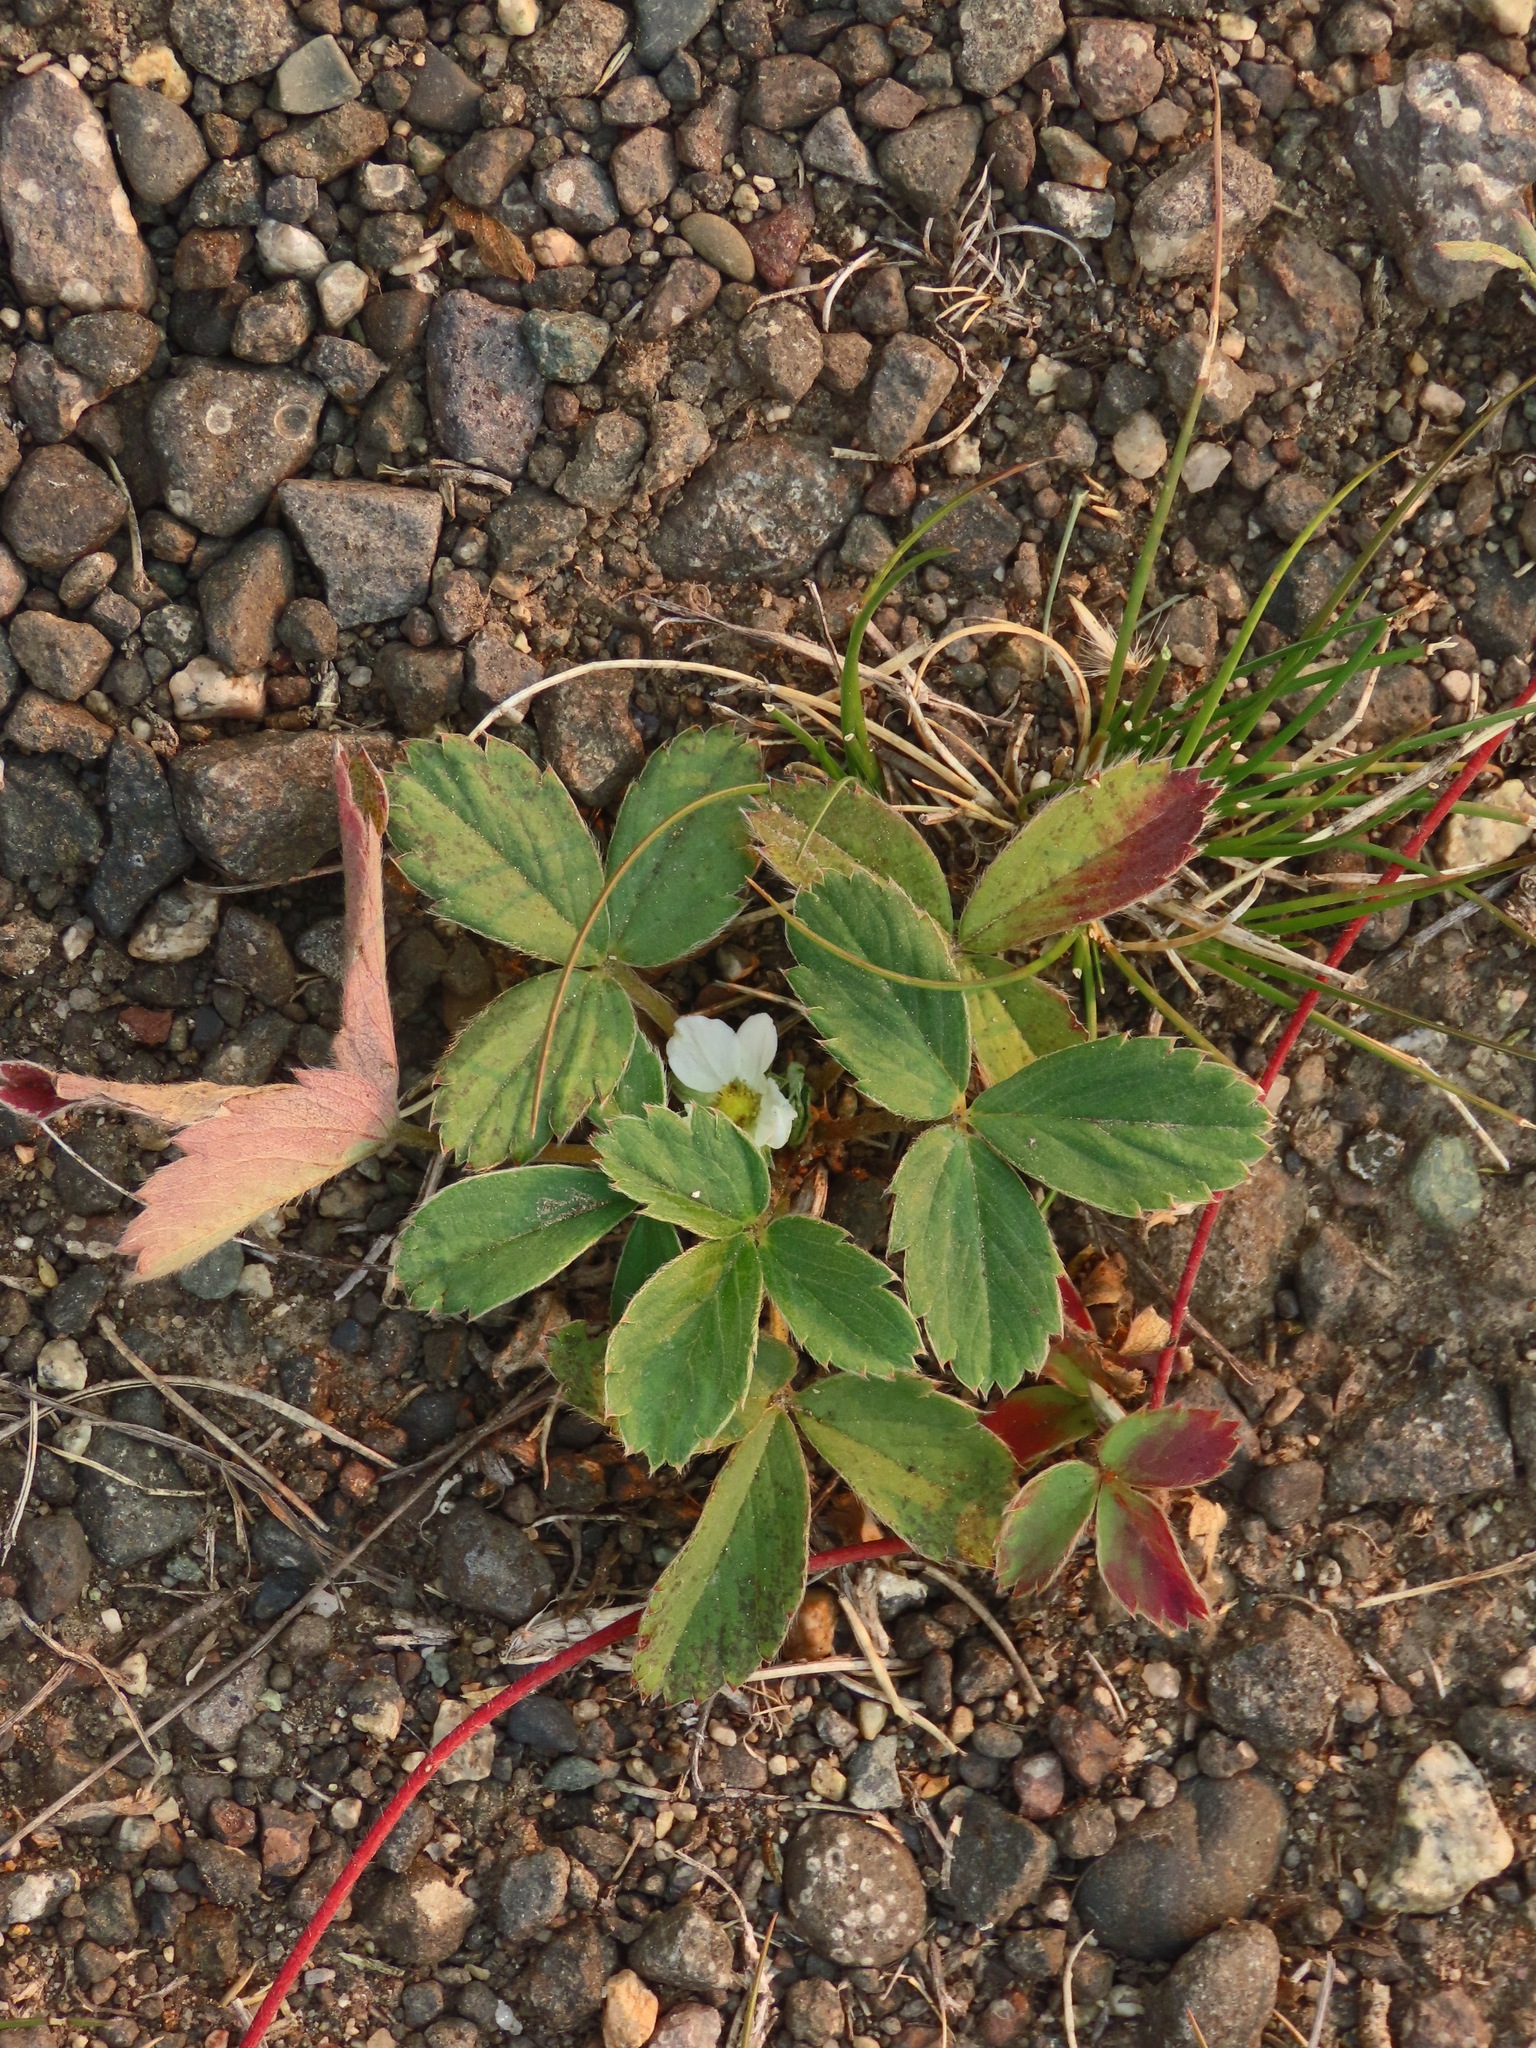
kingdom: Plantae
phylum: Tracheophyta
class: Magnoliopsida
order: Rosales
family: Rosaceae
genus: Fragaria
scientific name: Fragaria virginiana
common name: Thickleaved wild strawberry
